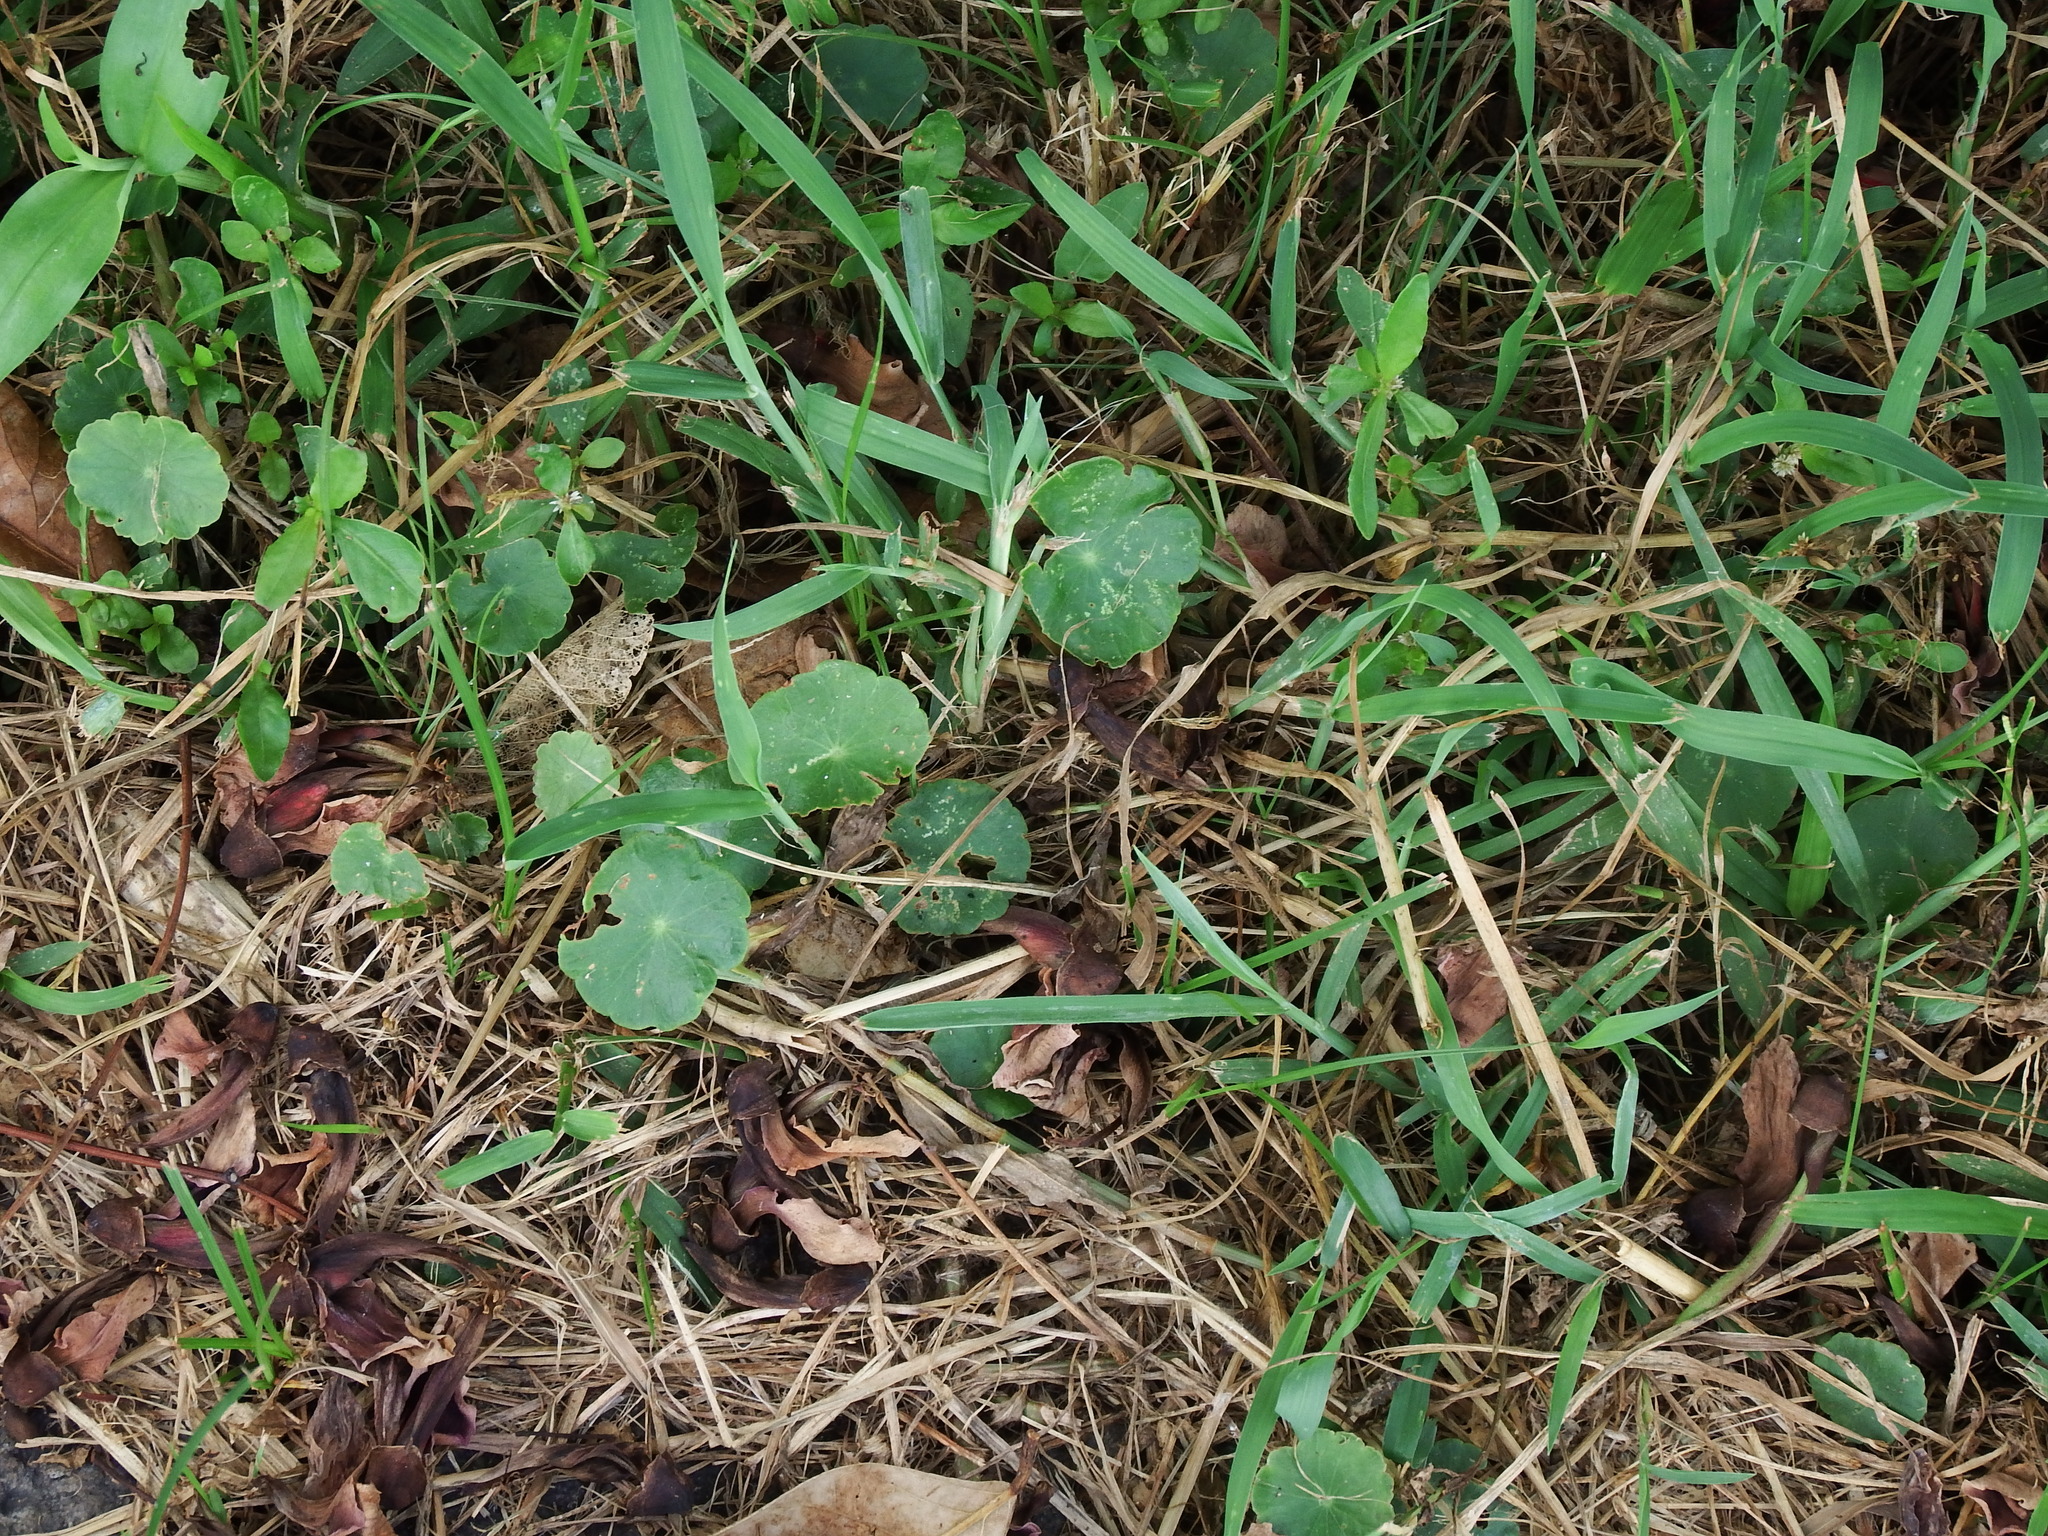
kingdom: Plantae
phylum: Tracheophyta
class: Magnoliopsida
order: Apiales
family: Araliaceae
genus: Hydrocotyle
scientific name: Hydrocotyle verticillata
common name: Whorled marshpennywort
